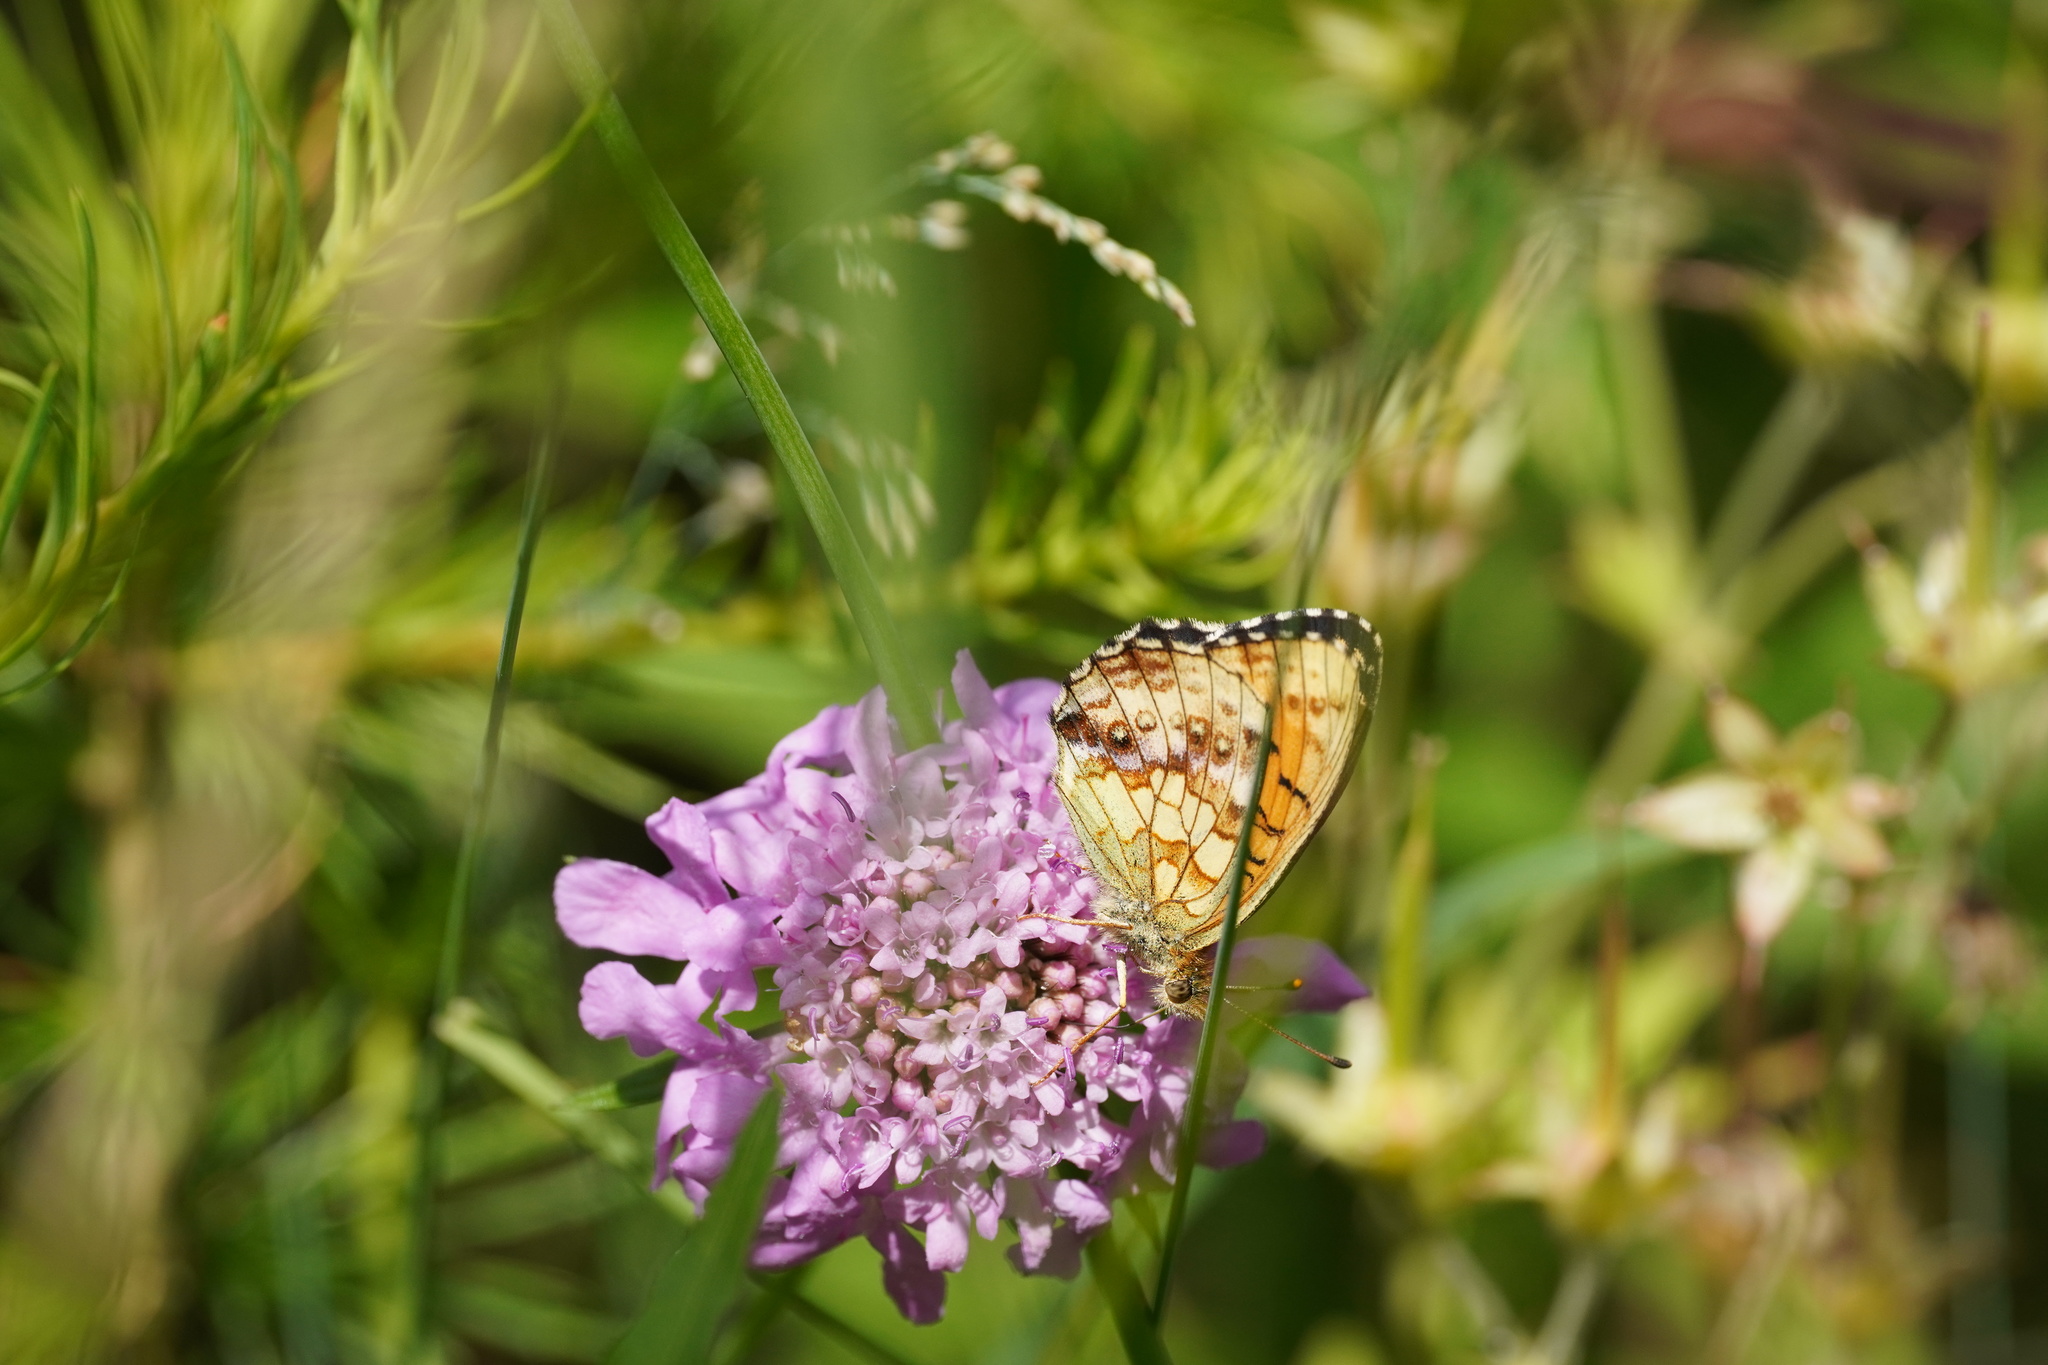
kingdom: Animalia
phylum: Arthropoda
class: Insecta
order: Lepidoptera
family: Nymphalidae
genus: Brenthis
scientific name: Brenthis ino
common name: Lesser marbled fritillary
